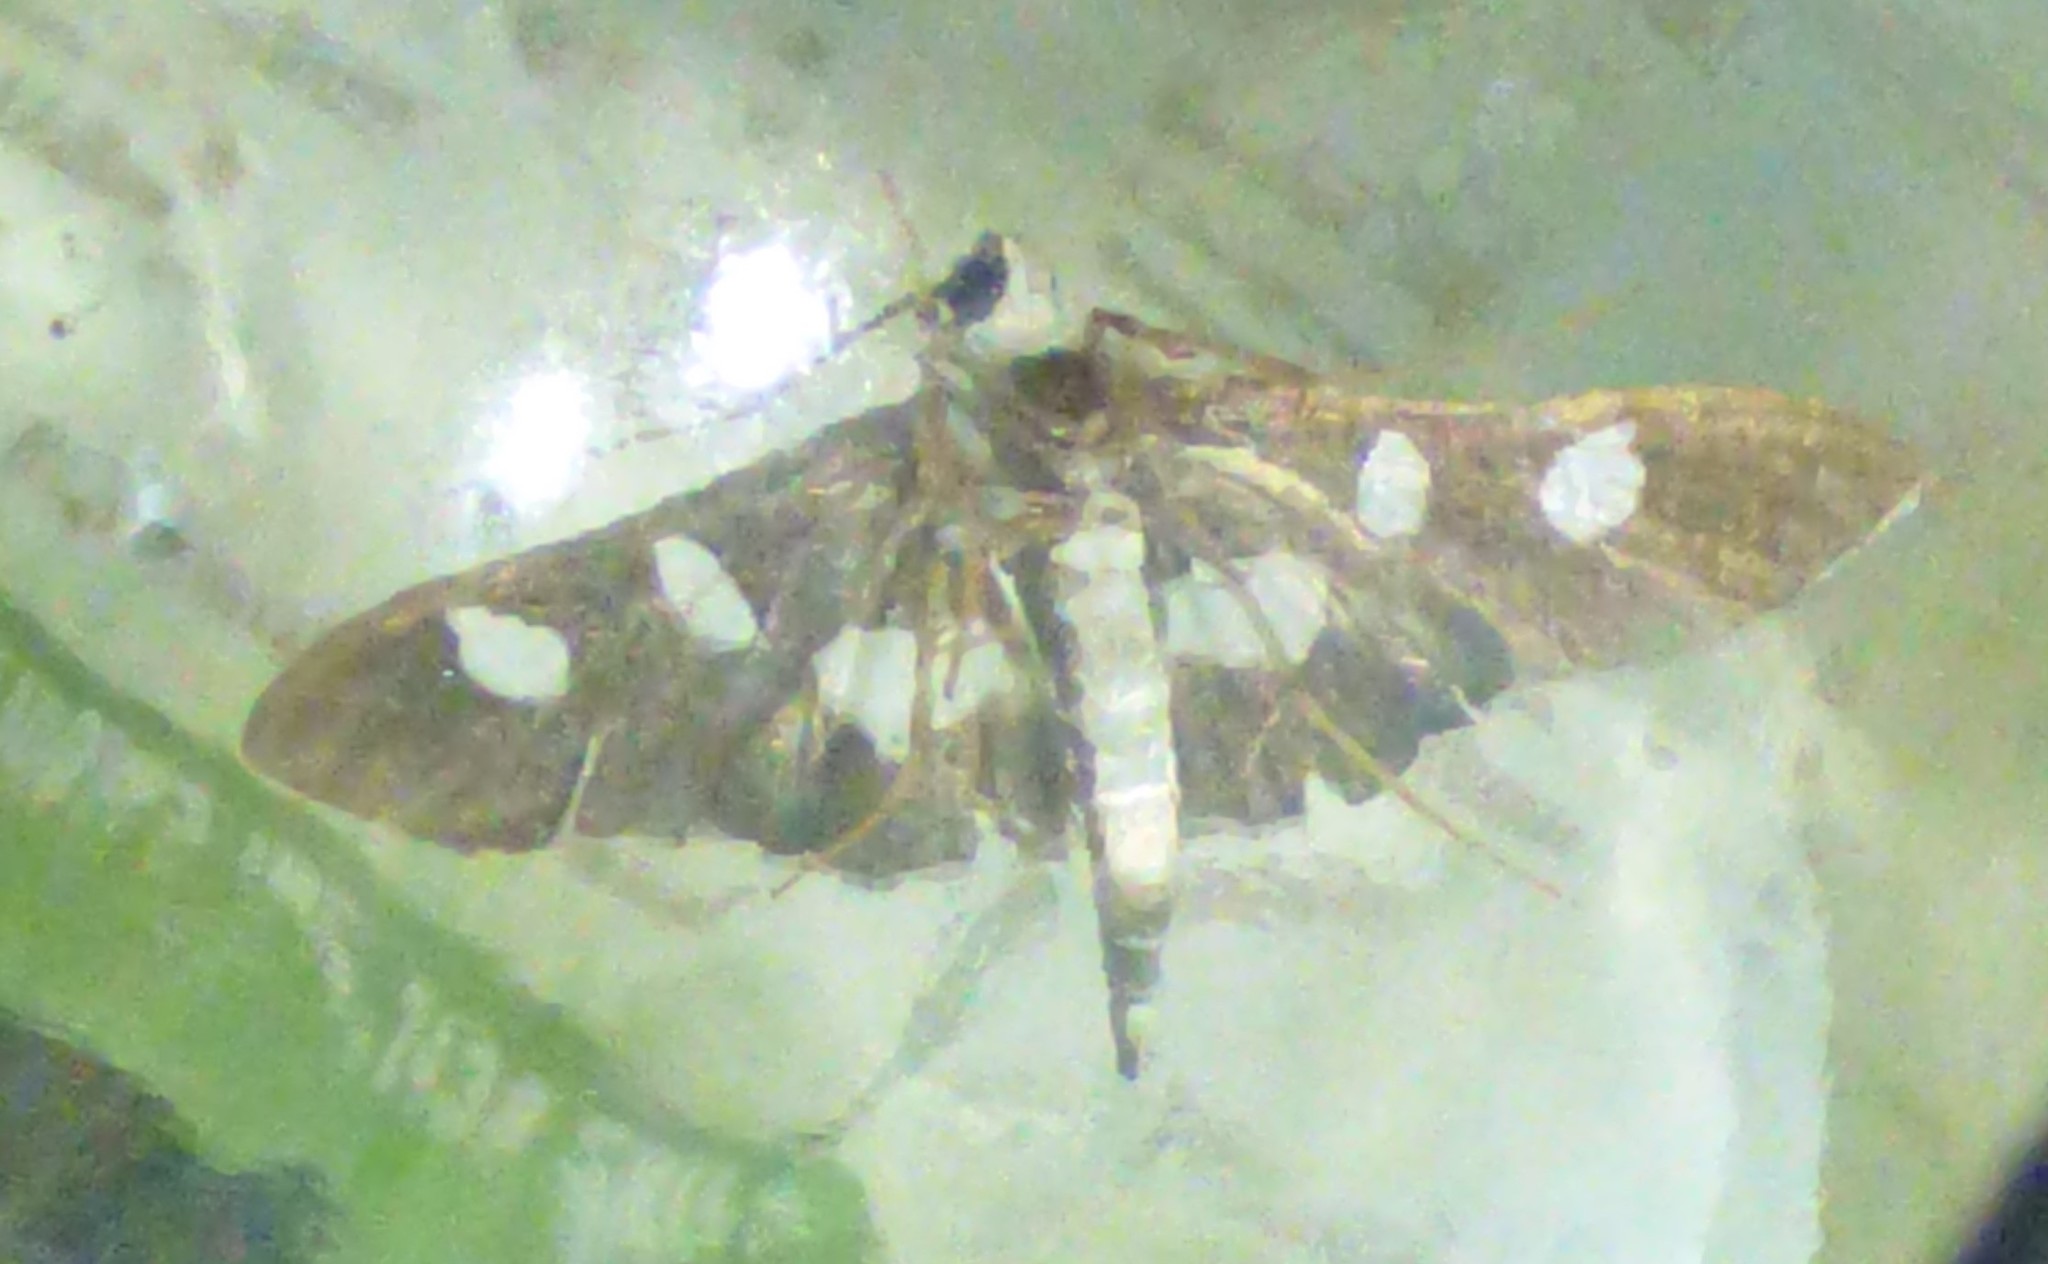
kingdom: Animalia
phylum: Arthropoda
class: Insecta
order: Lepidoptera
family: Crambidae
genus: Desmia
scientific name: Desmia funeralis
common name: Grape leaf folder moth
